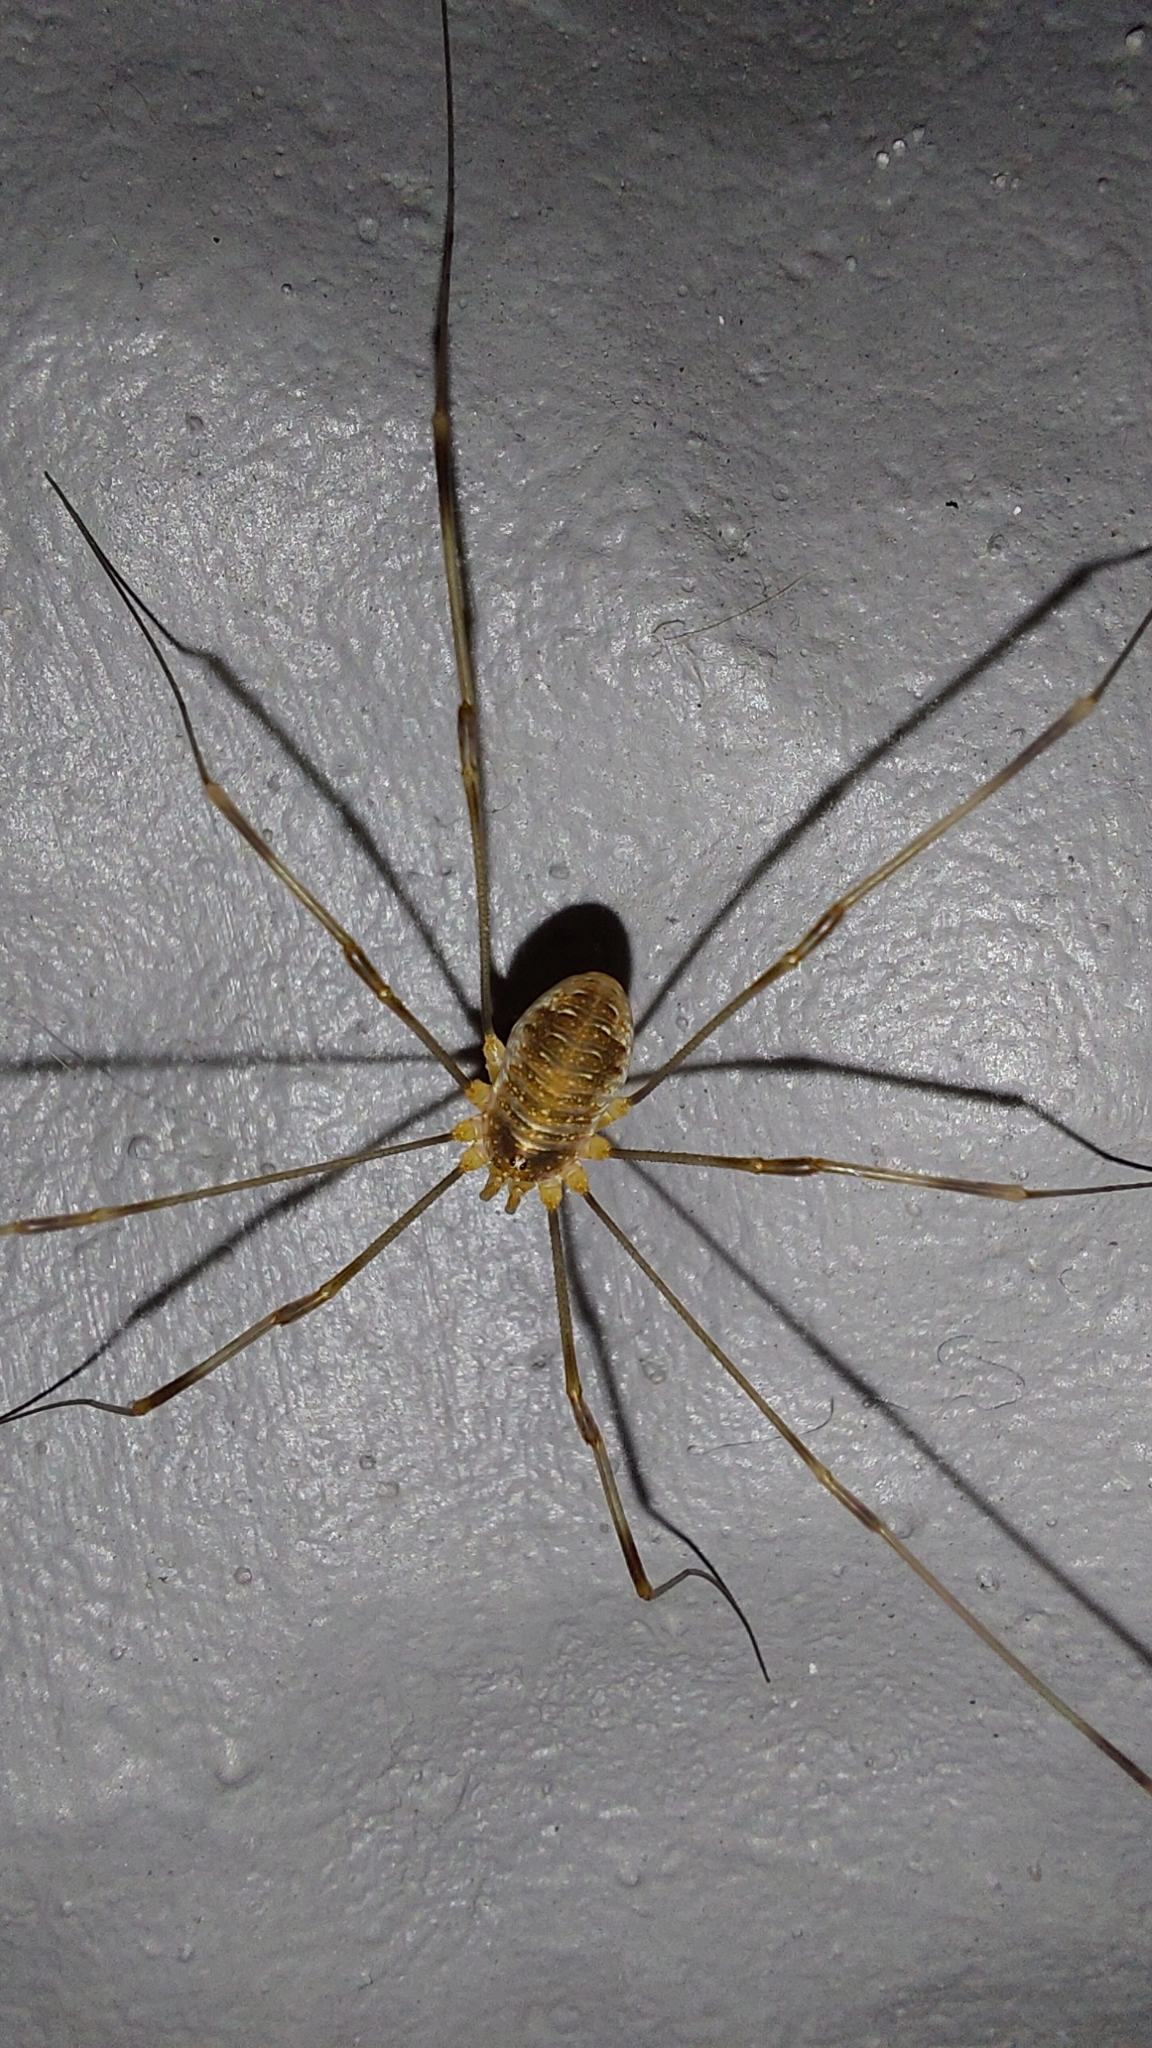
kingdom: Animalia
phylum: Arthropoda
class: Arachnida
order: Opiliones
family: Phalangiidae
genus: Opilio
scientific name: Opilio canestrinii
